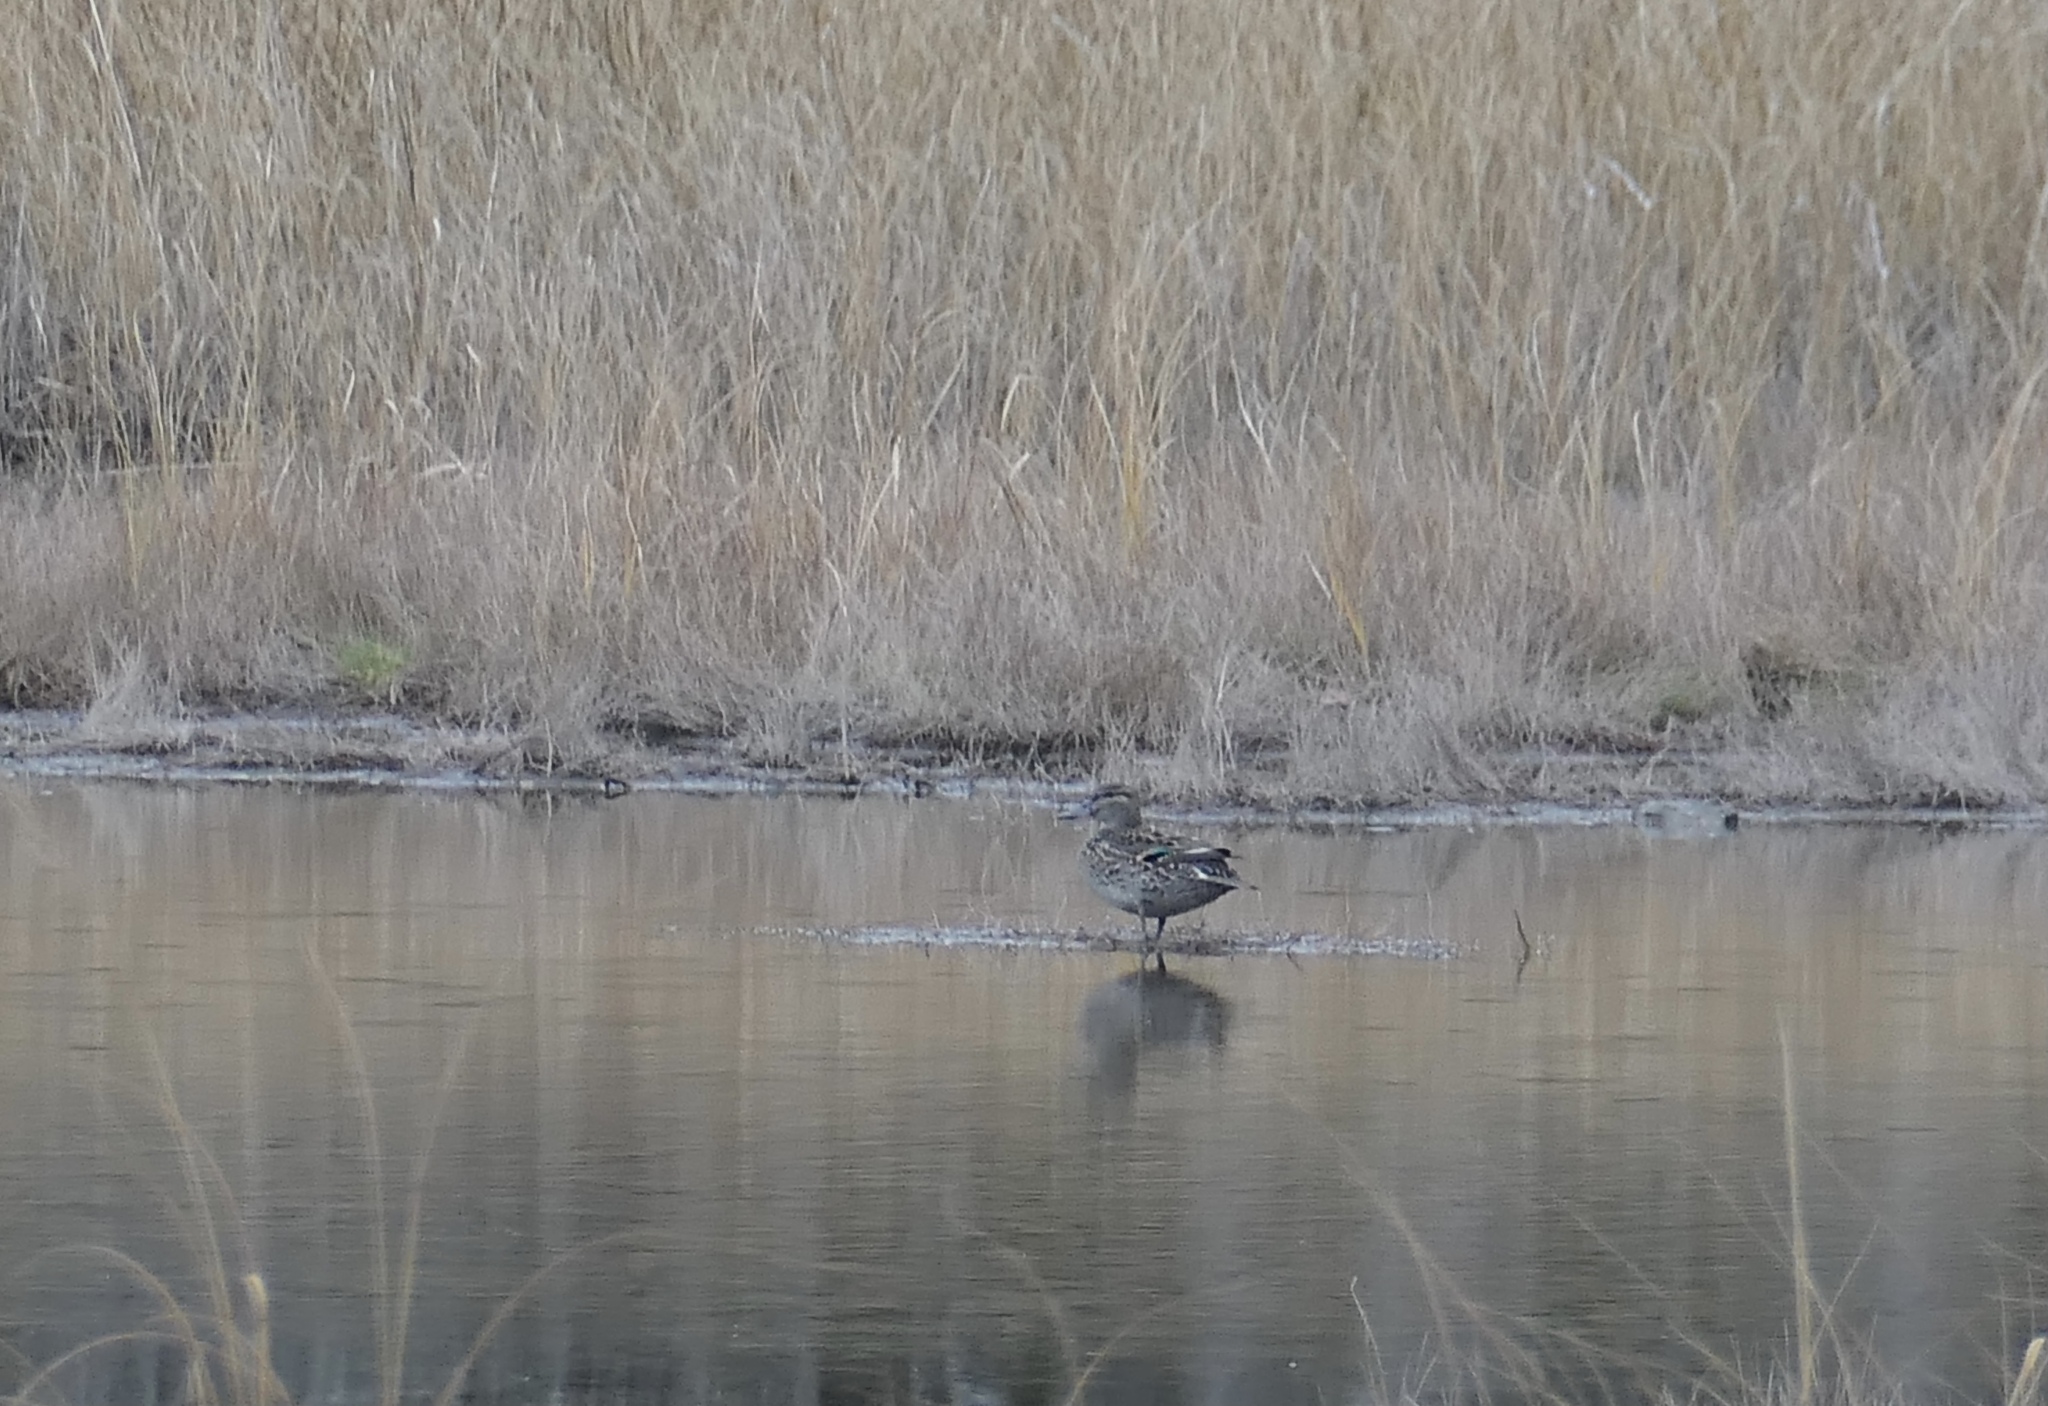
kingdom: Animalia
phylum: Chordata
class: Aves
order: Anseriformes
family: Anatidae
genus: Anas
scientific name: Anas crecca
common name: Eurasian teal
